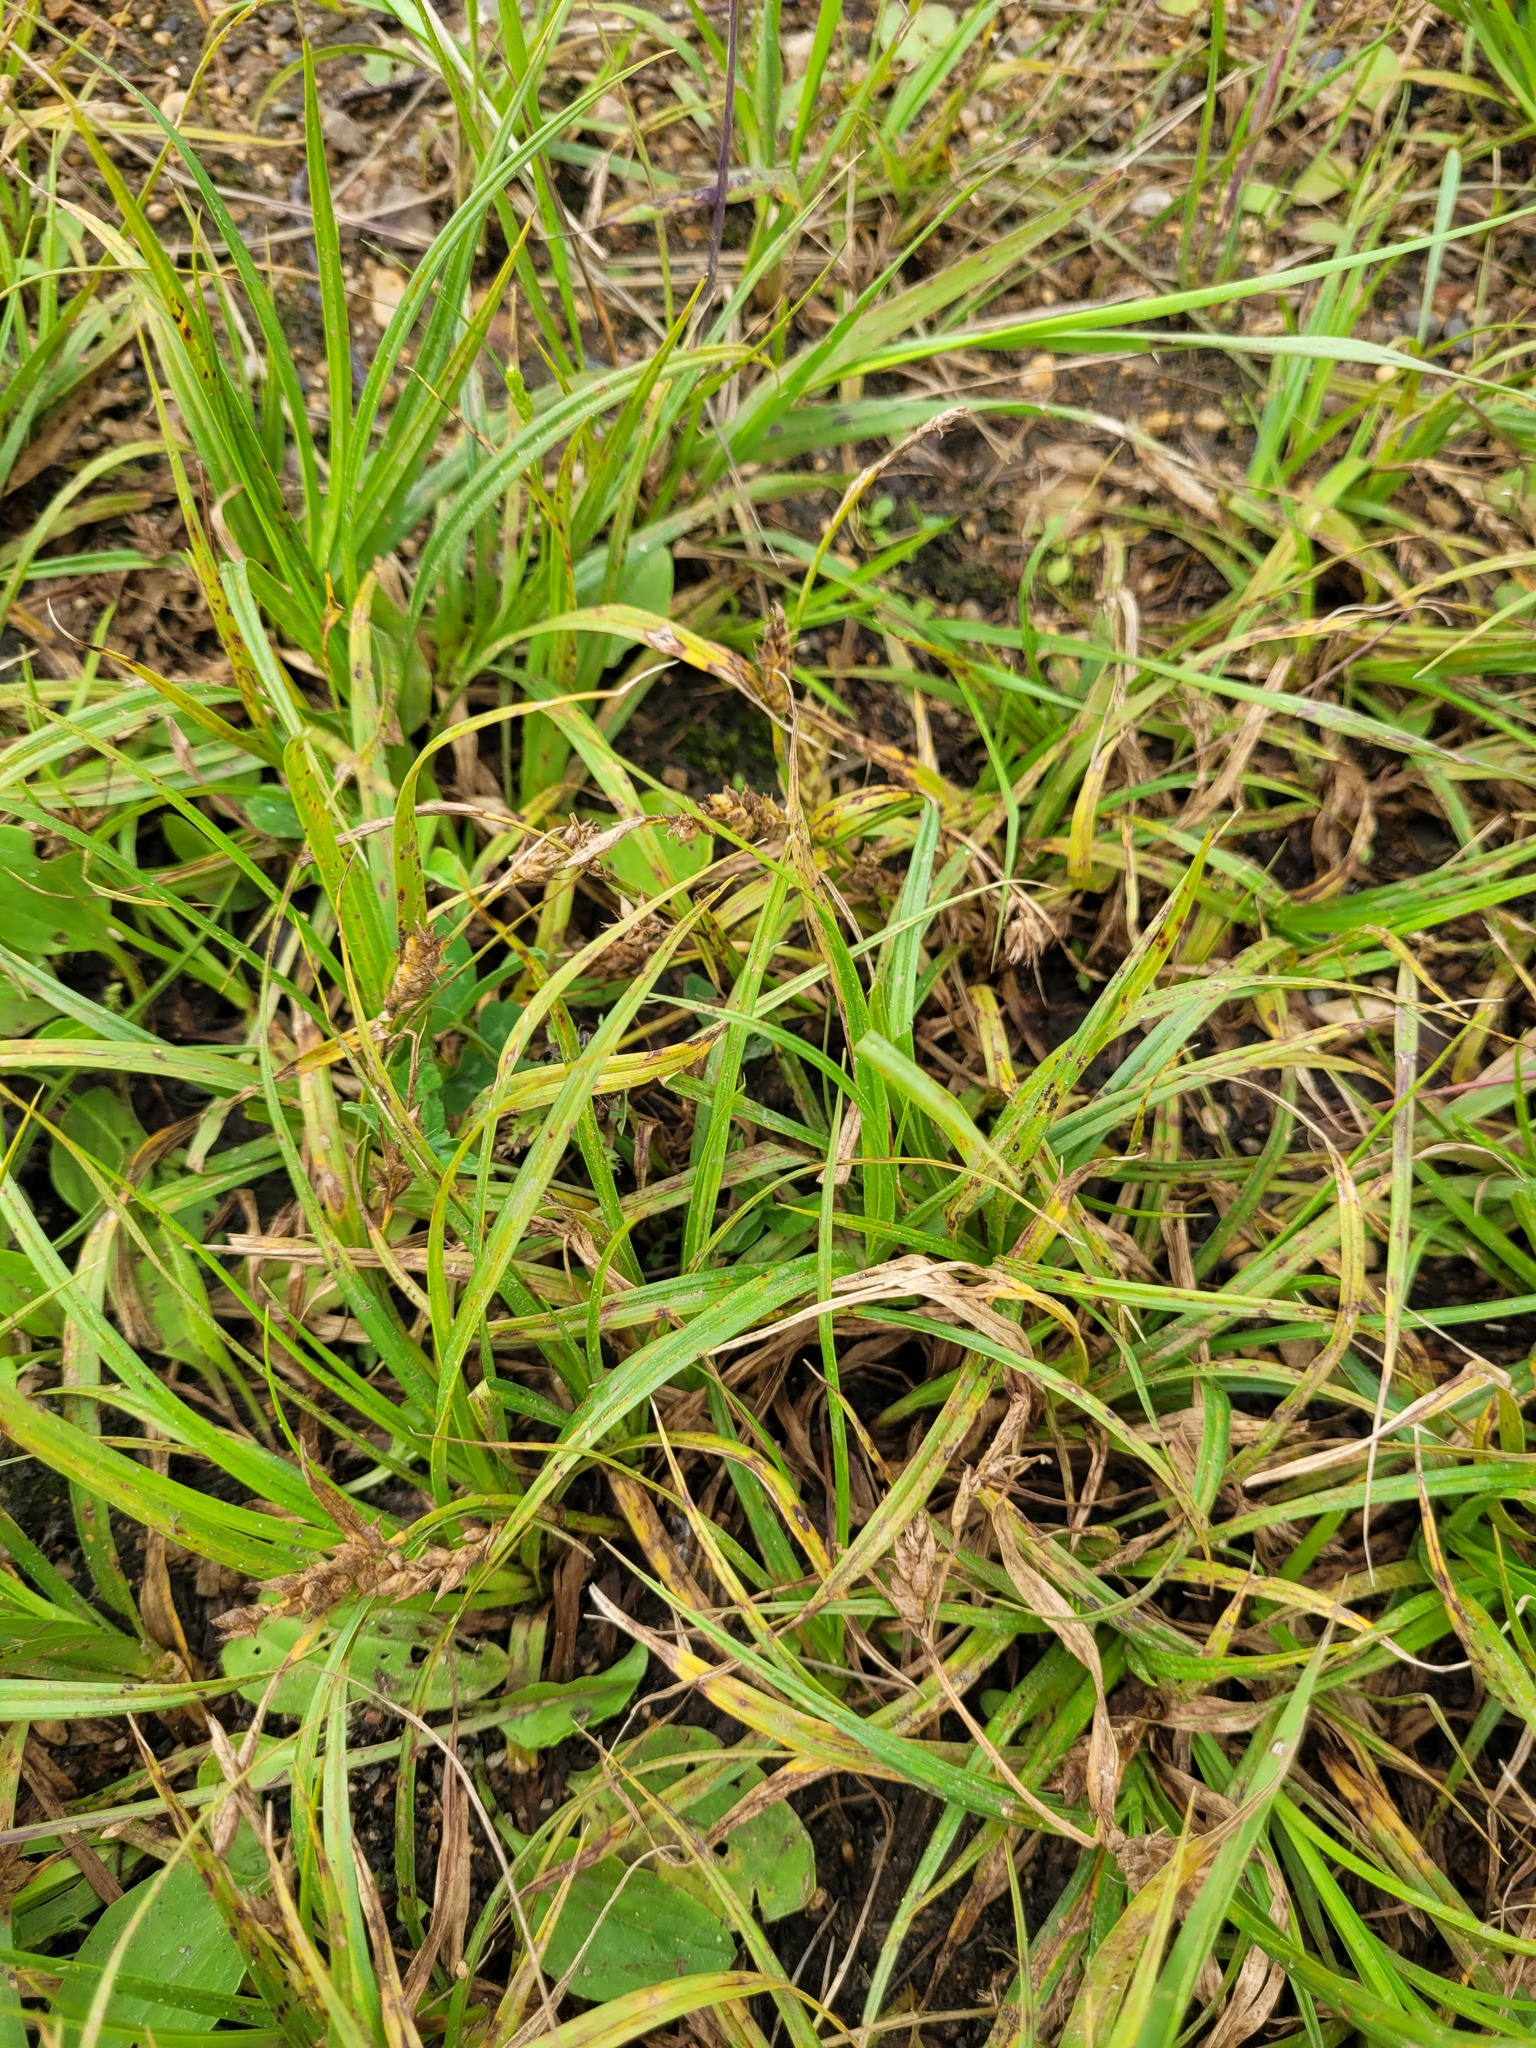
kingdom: Plantae
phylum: Tracheophyta
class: Liliopsida
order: Poales
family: Cyperaceae
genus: Carex
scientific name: Carex hirta
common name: Hairy sedge
